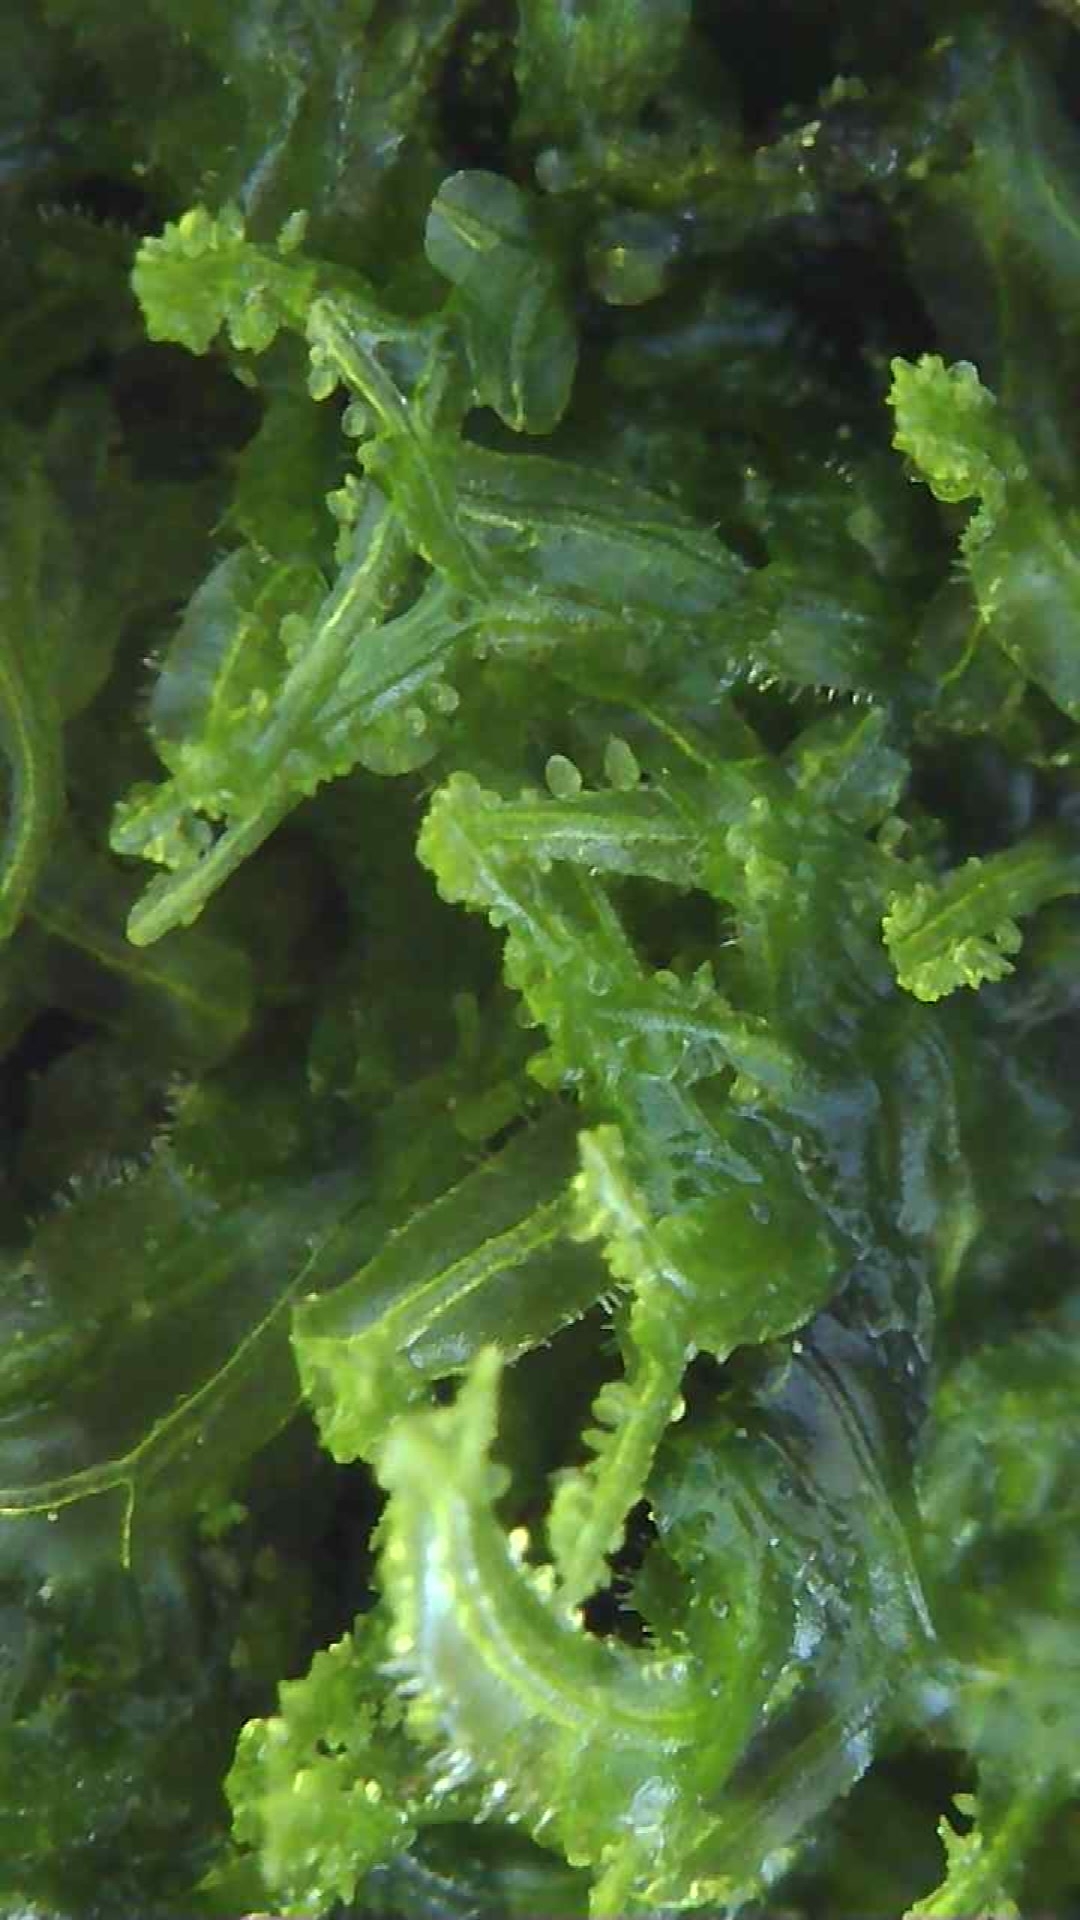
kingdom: Plantae
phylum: Marchantiophyta
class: Jungermanniopsida
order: Metzgeriales
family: Metzgeriaceae
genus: Metzgeria
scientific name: Metzgeria consanguinea
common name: Whiskered veilwort
